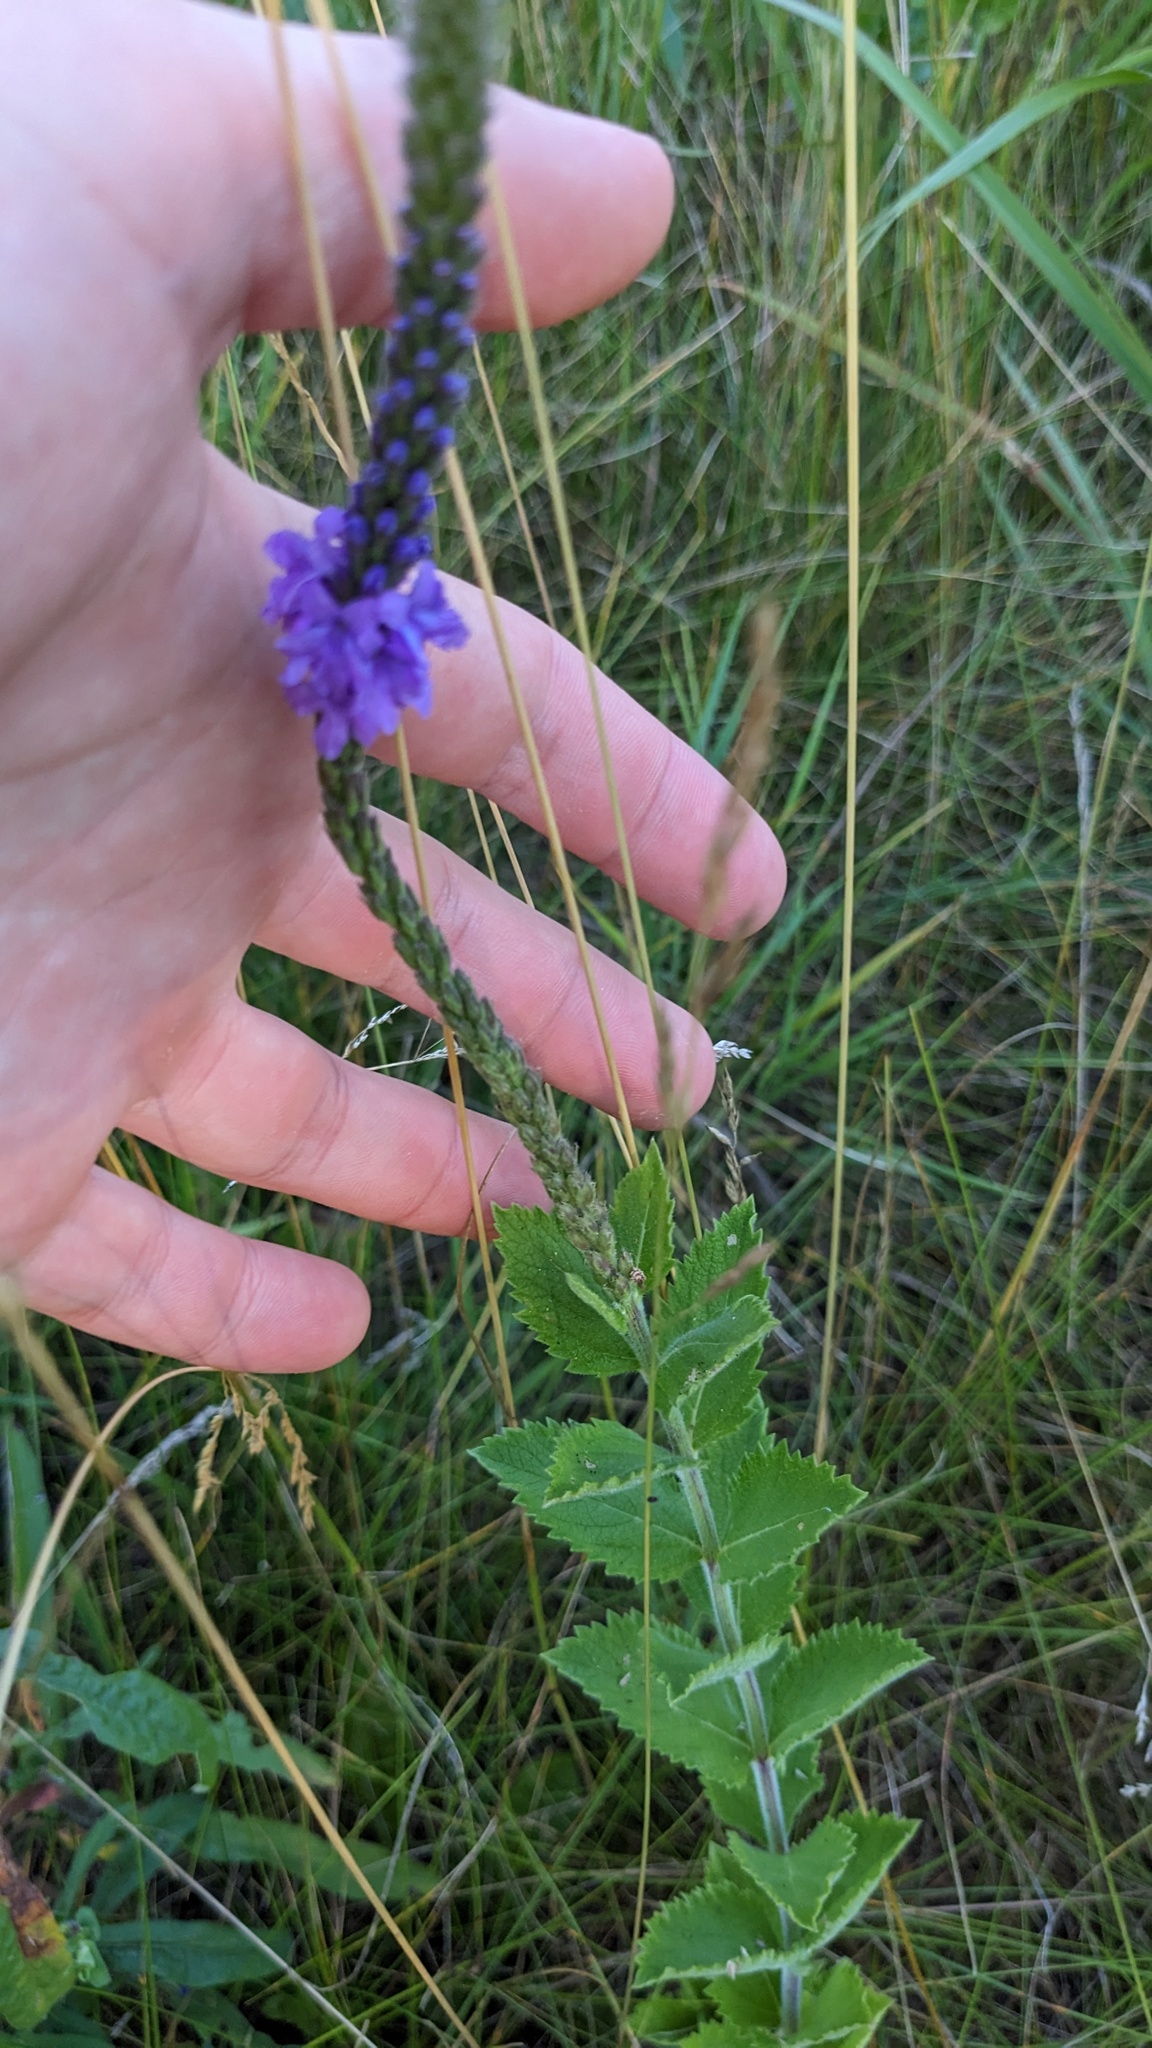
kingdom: Plantae
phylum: Tracheophyta
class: Magnoliopsida
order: Lamiales
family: Verbenaceae
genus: Verbena
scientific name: Verbena stricta
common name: Hoary vervain
